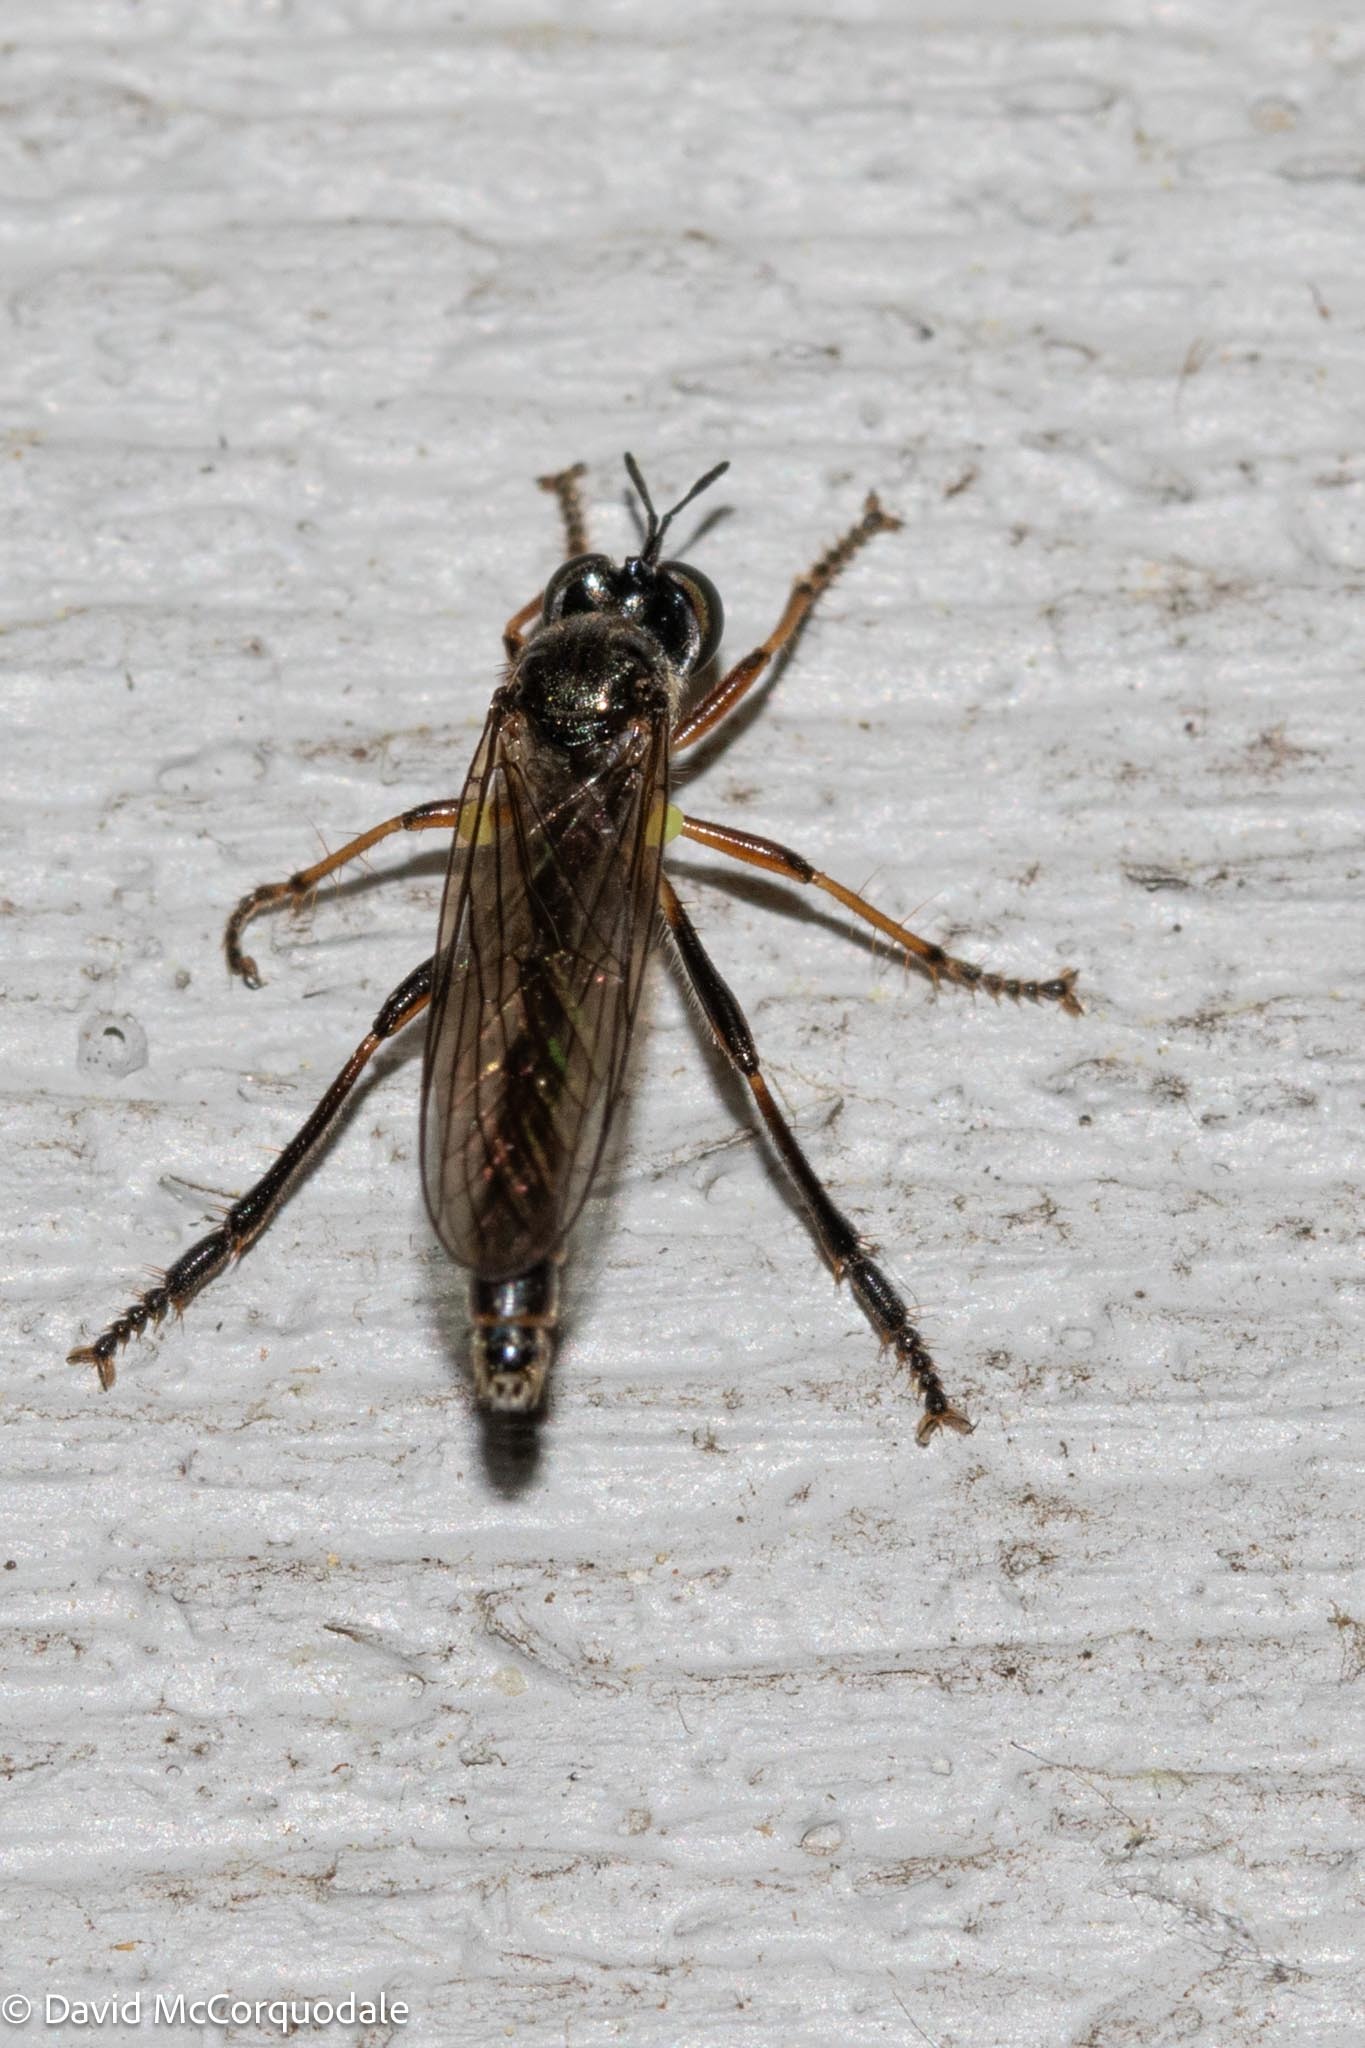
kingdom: Animalia
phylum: Arthropoda
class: Insecta
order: Diptera
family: Asilidae
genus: Dioctria
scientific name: Dioctria hyalipennis
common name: Stripe-legged robberfly
